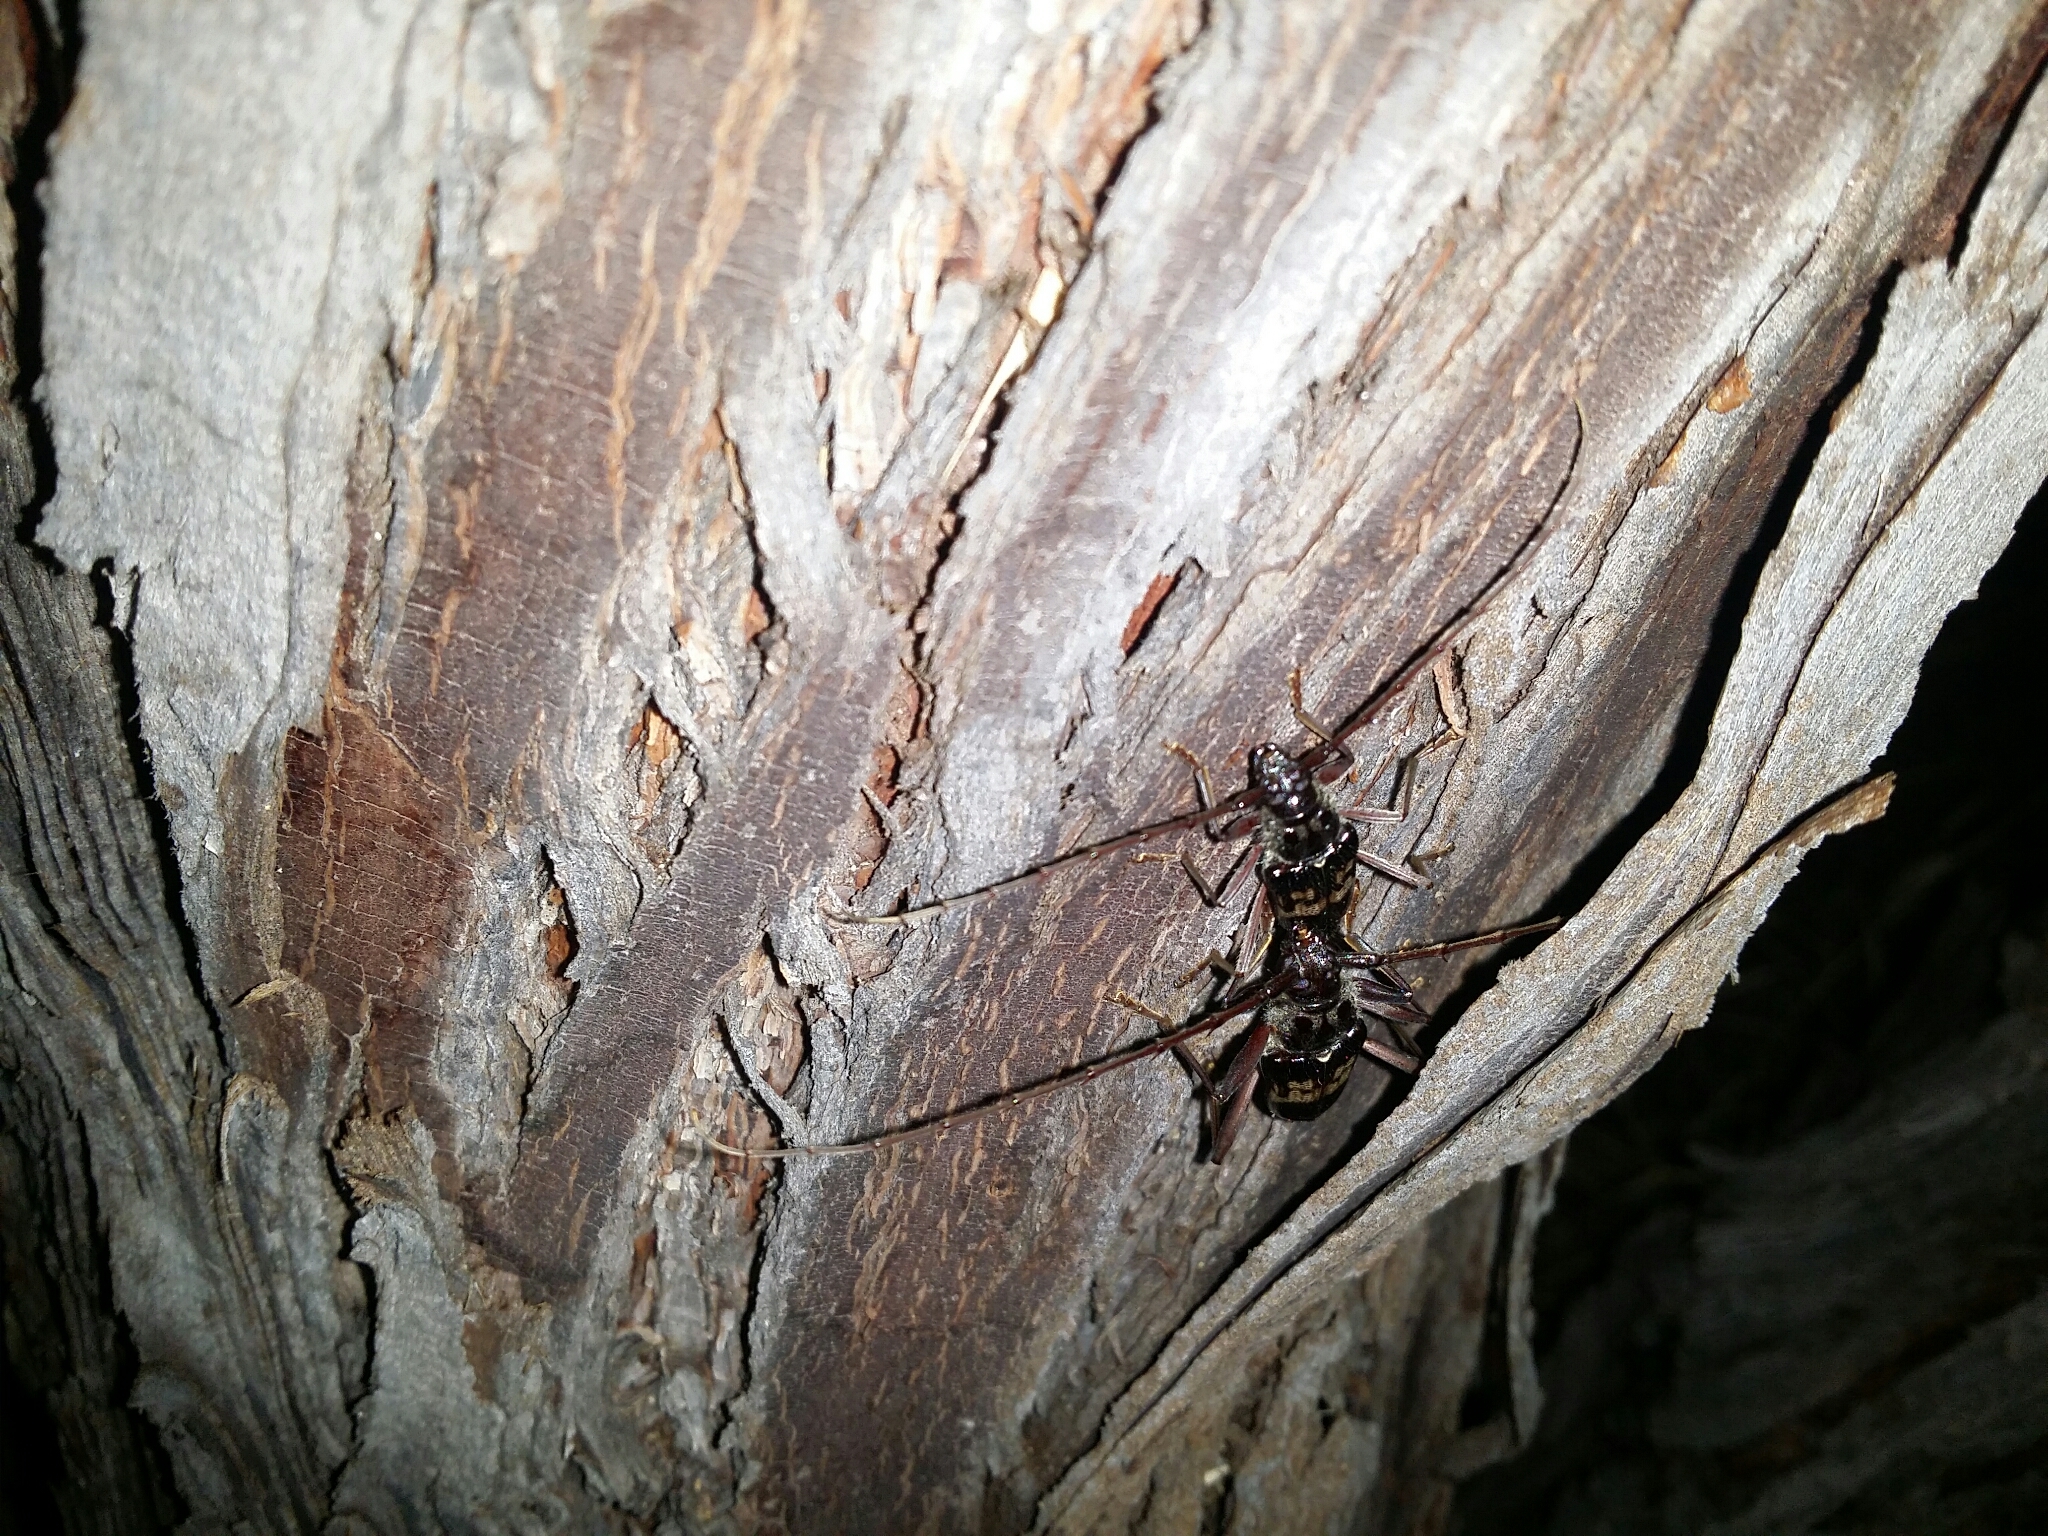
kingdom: Animalia
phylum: Arthropoda
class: Insecta
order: Coleoptera
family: Cerambycidae
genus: Phoracantha
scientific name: Phoracantha semipunctata
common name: Eucalyptus longhorn borer
